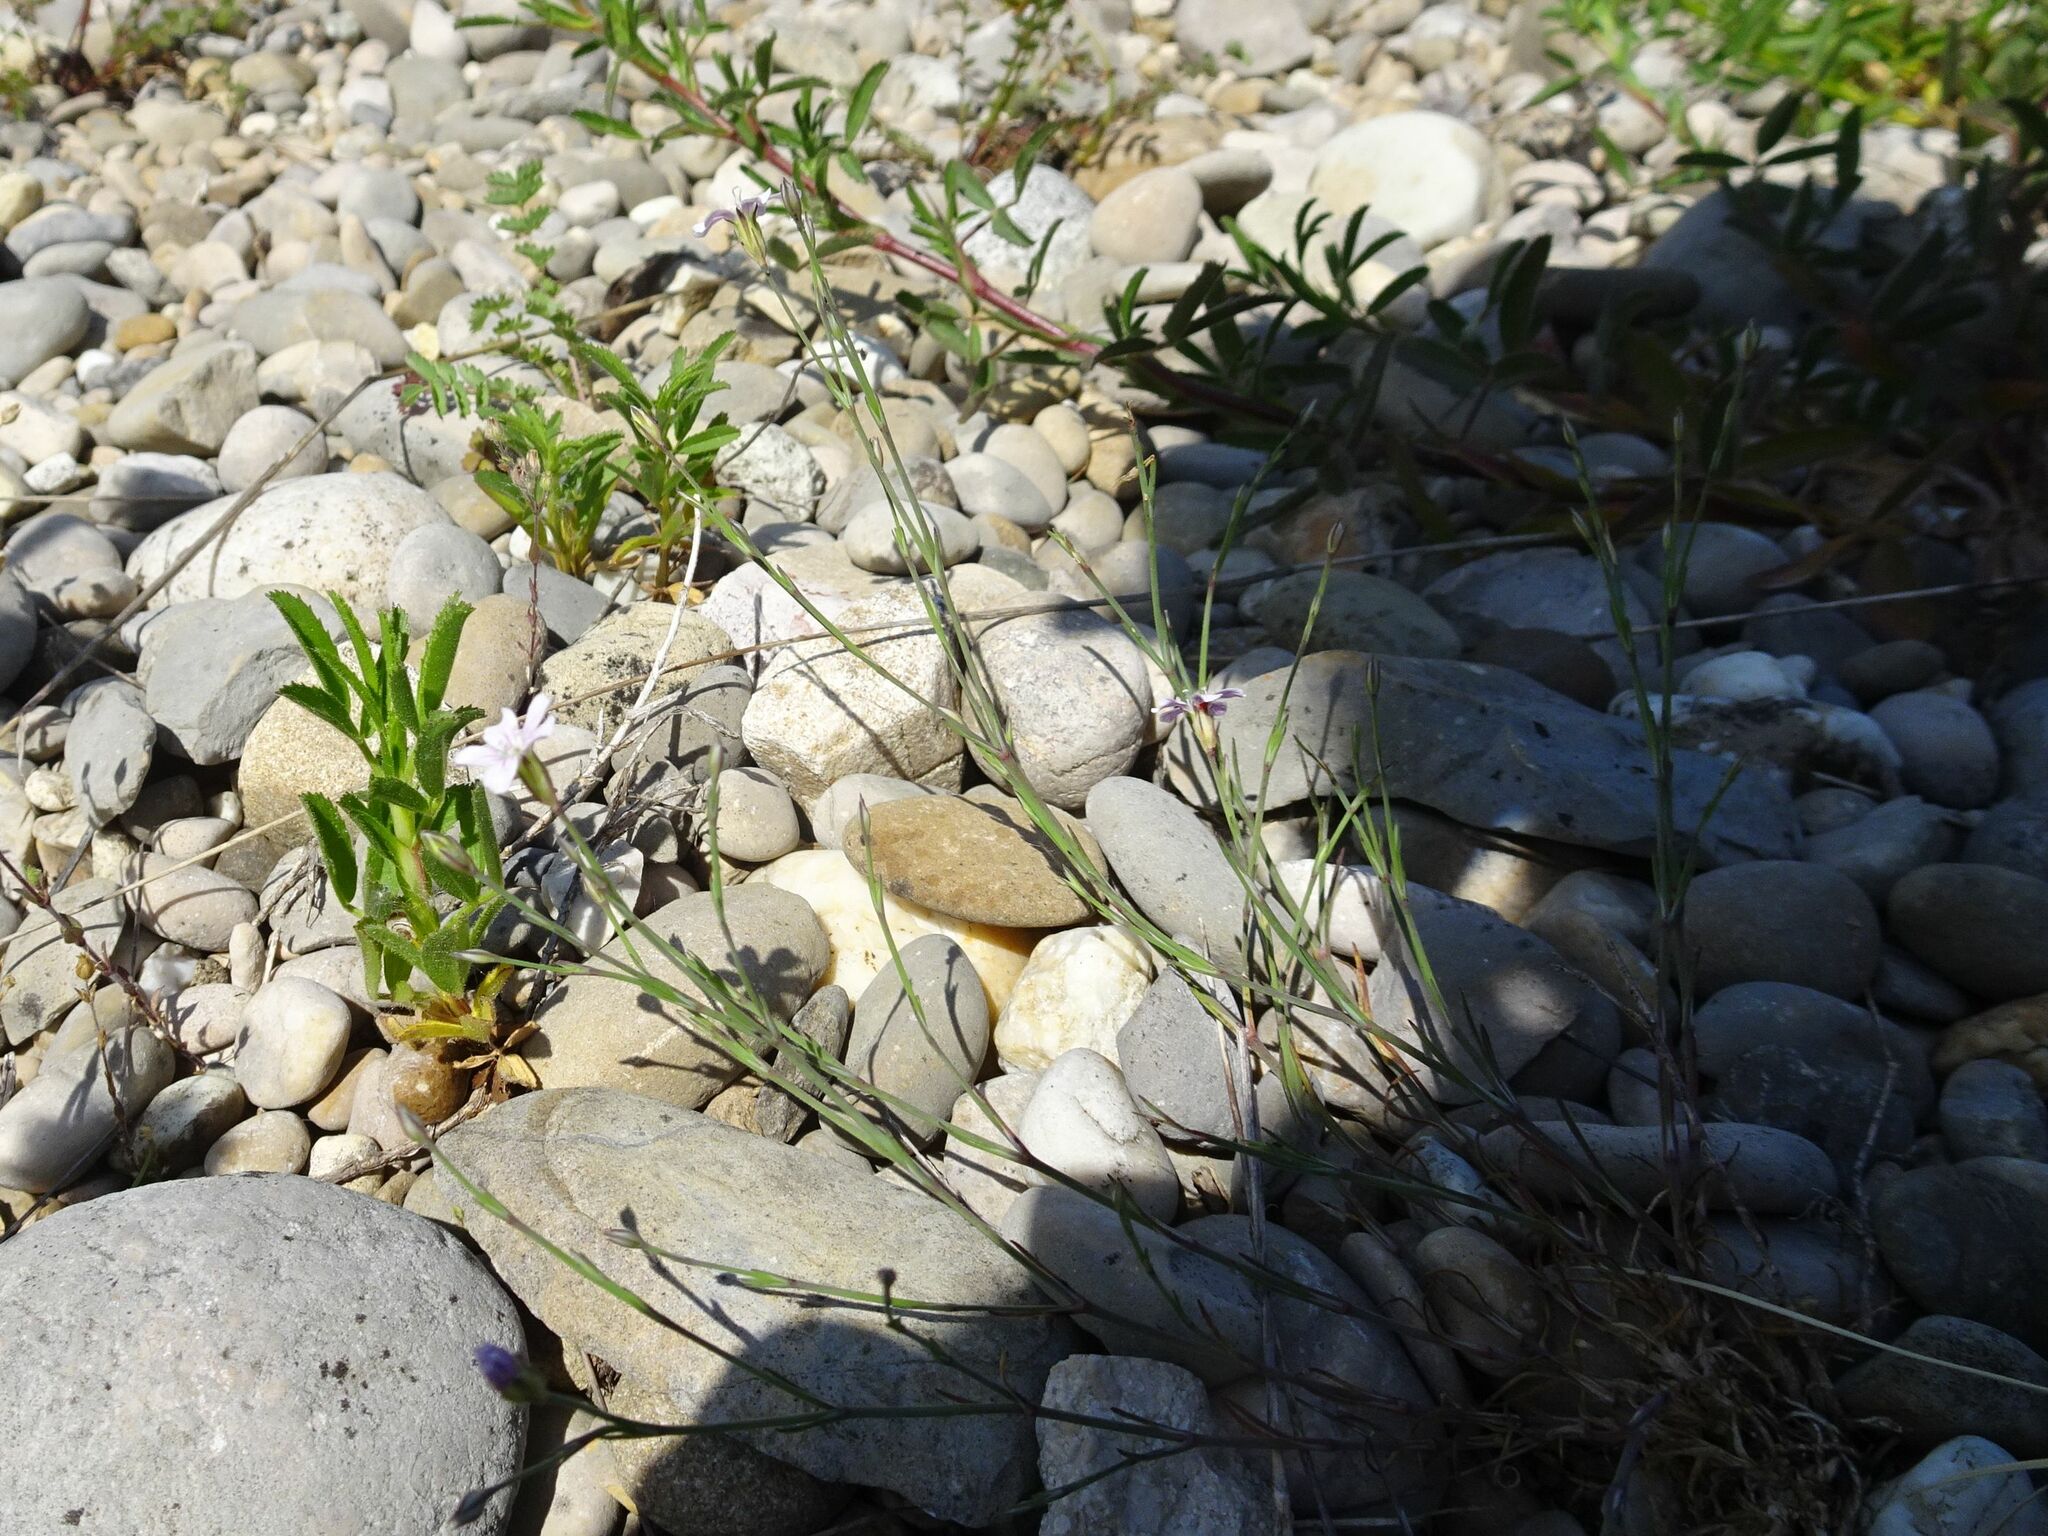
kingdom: Plantae
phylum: Tracheophyta
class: Magnoliopsida
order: Caryophyllales
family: Caryophyllaceae
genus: Petrorhagia
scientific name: Petrorhagia saxifraga
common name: Tunicflower
